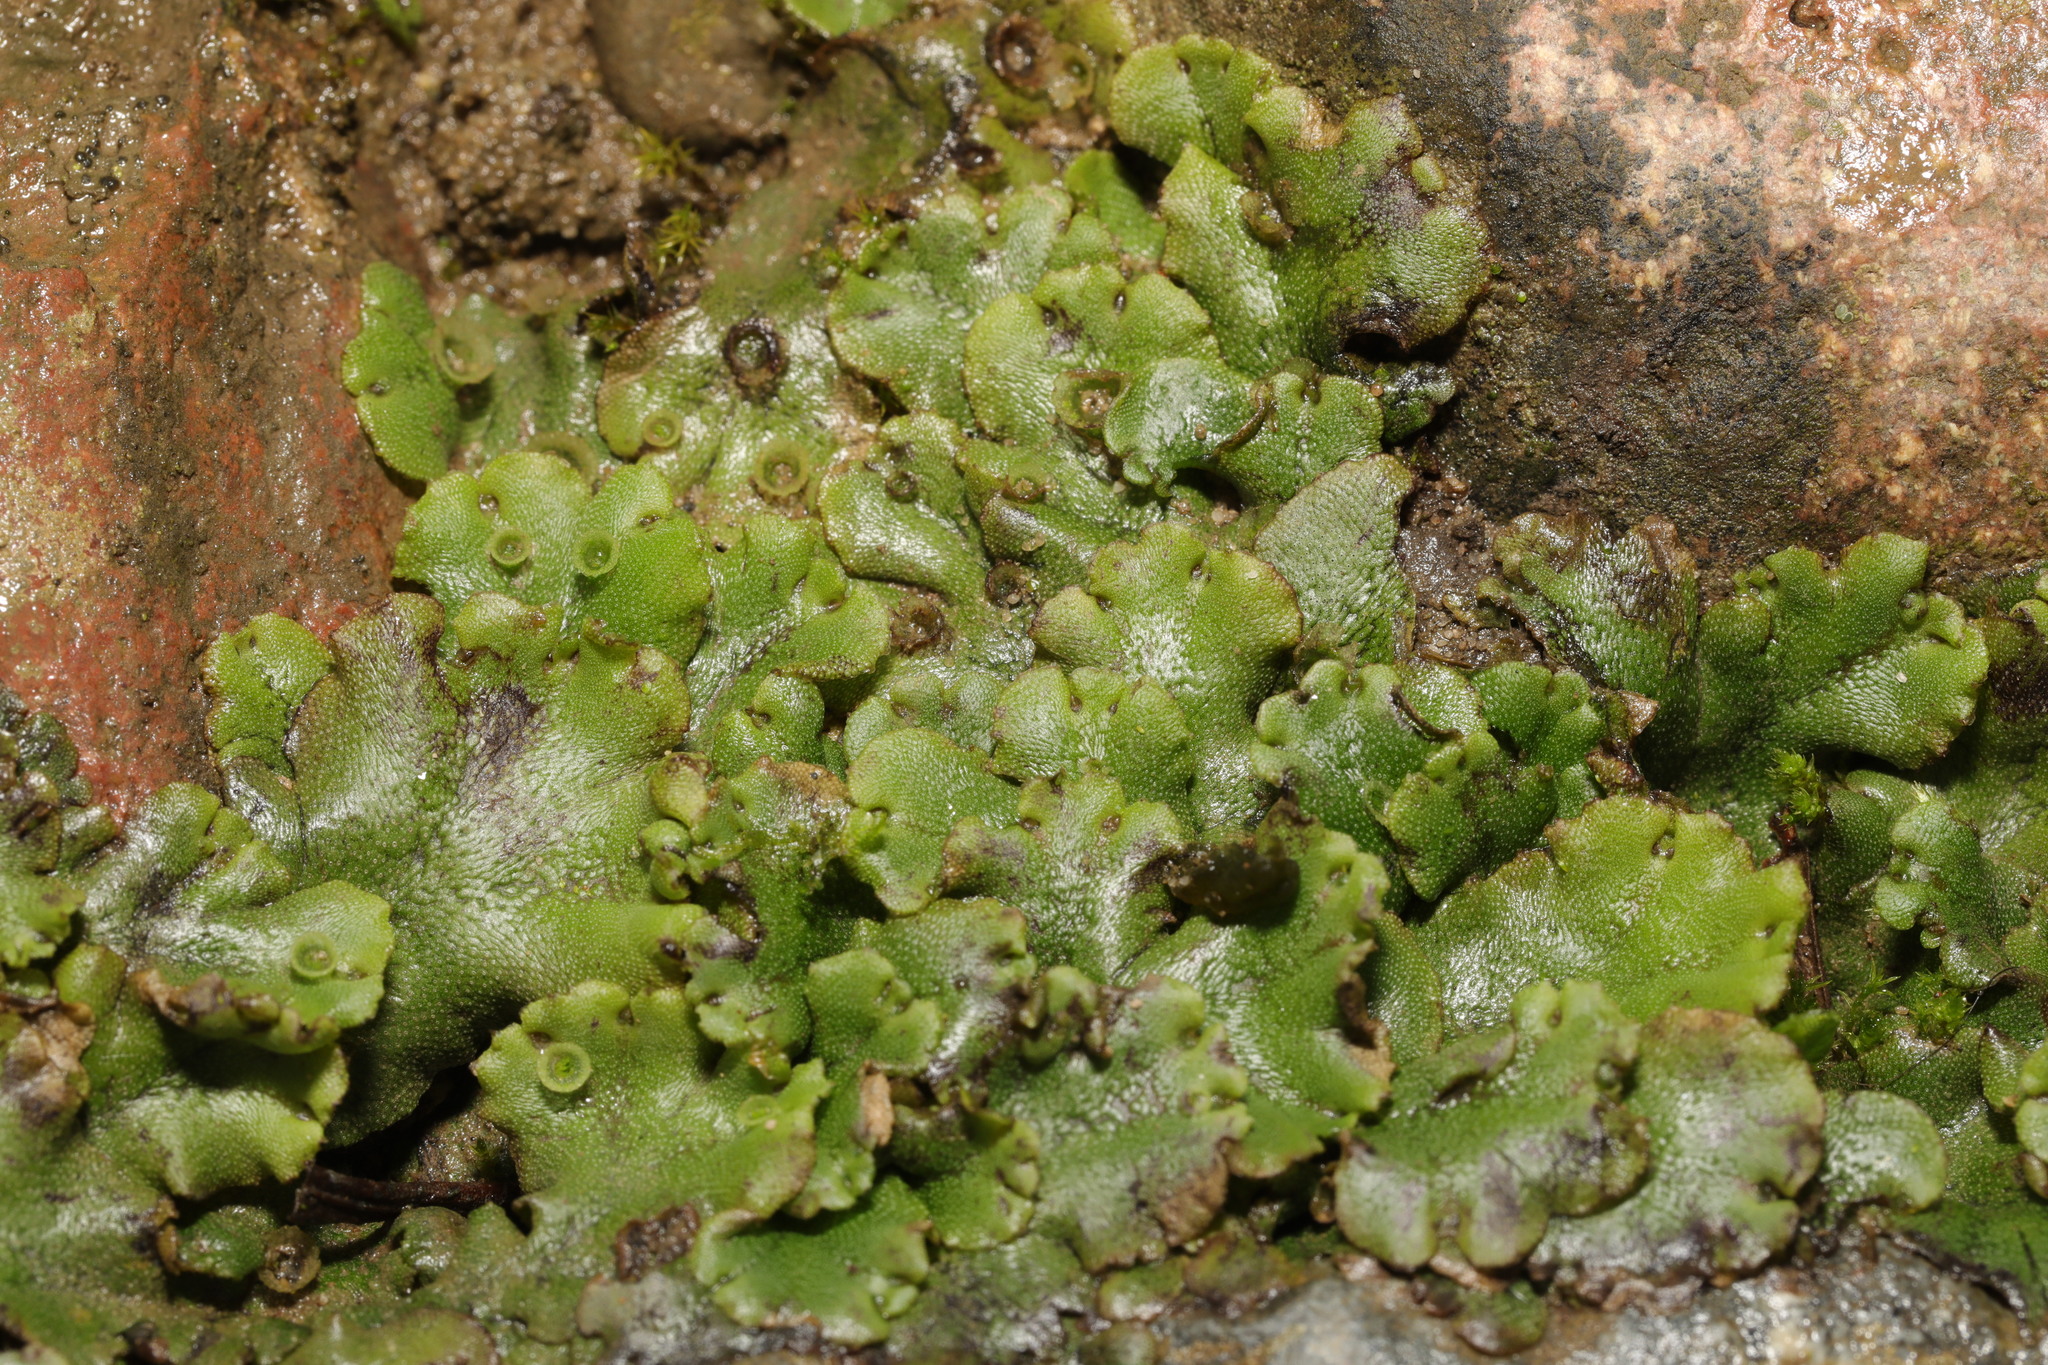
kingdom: Plantae
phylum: Marchantiophyta
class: Marchantiopsida
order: Marchantiales
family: Marchantiaceae
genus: Marchantia
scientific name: Marchantia polymorpha
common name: Common liverwort
